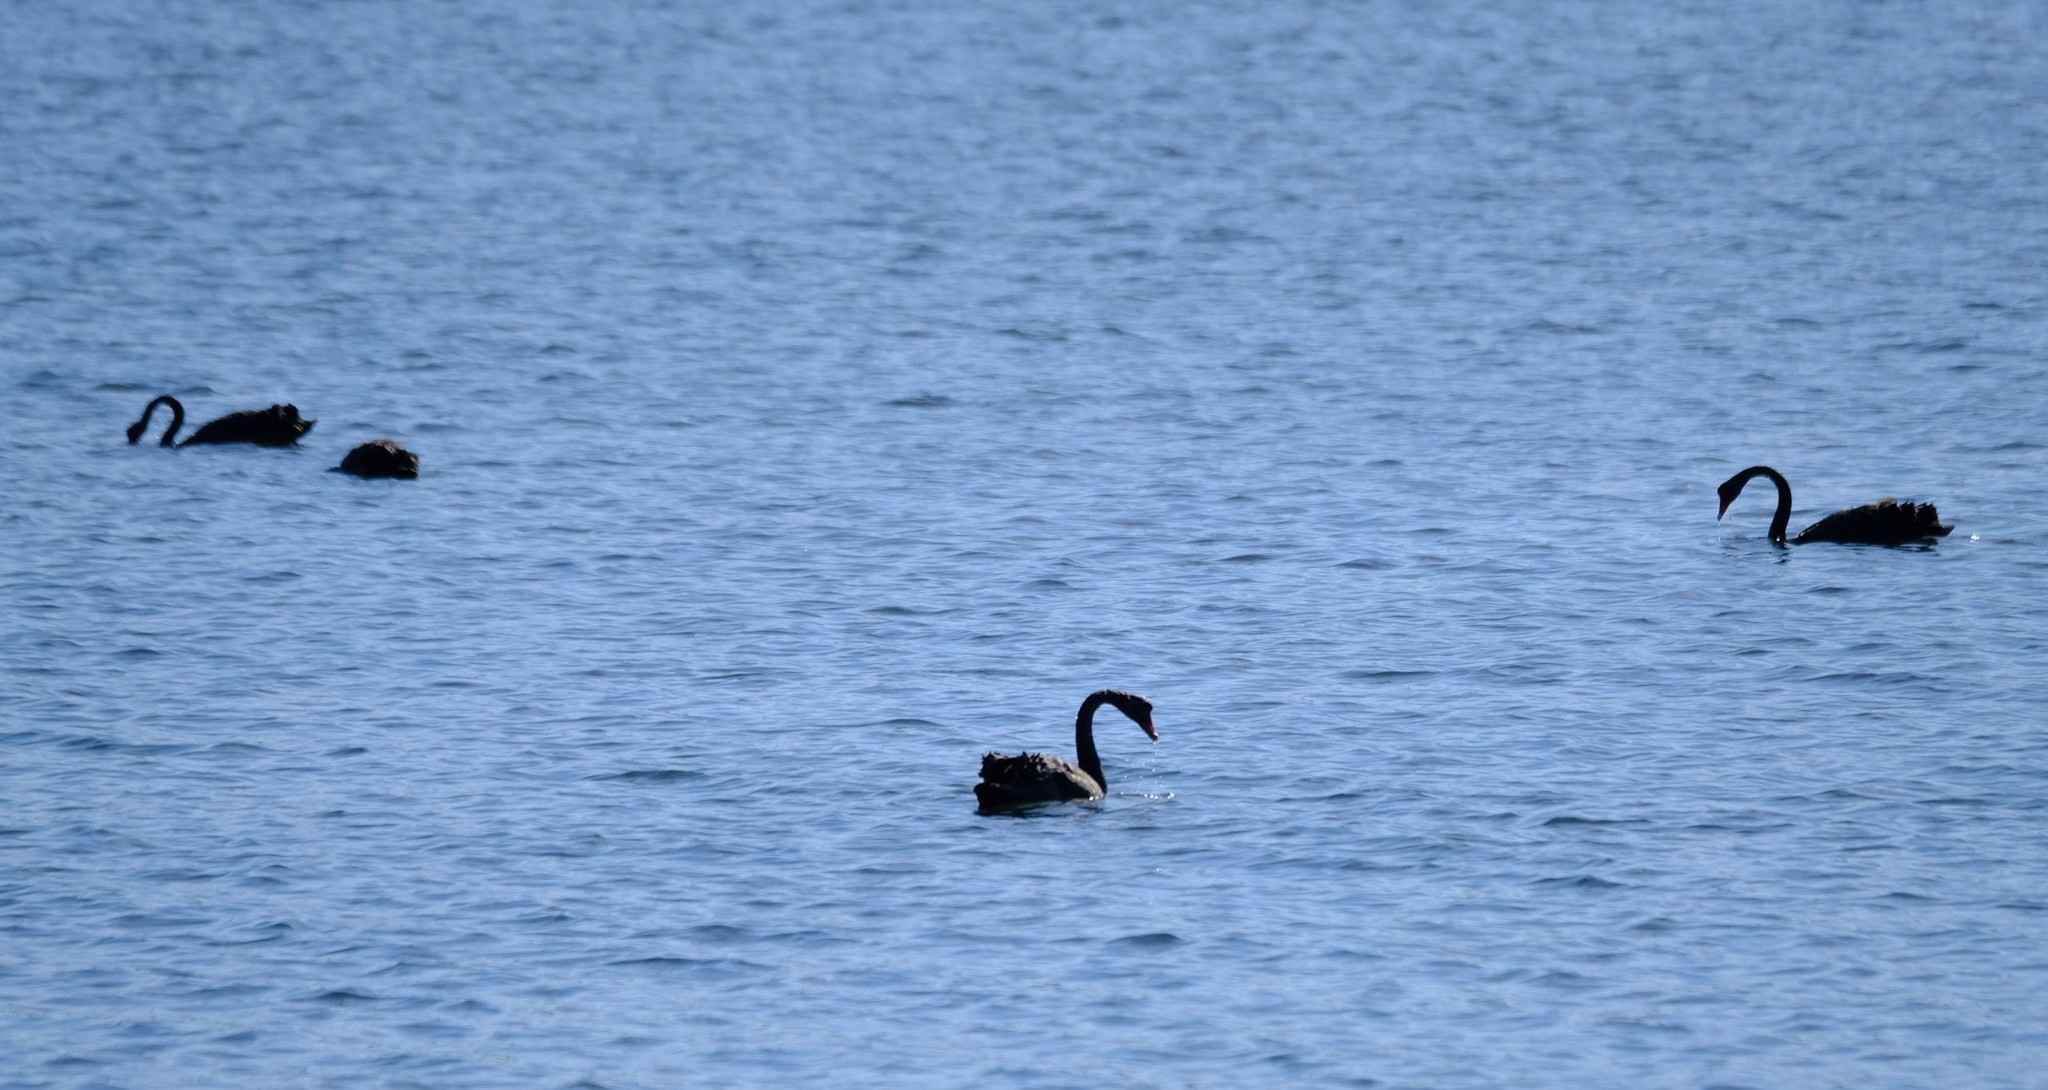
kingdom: Animalia
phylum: Chordata
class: Aves
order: Anseriformes
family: Anatidae
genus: Cygnus
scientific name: Cygnus atratus
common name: Black swan
